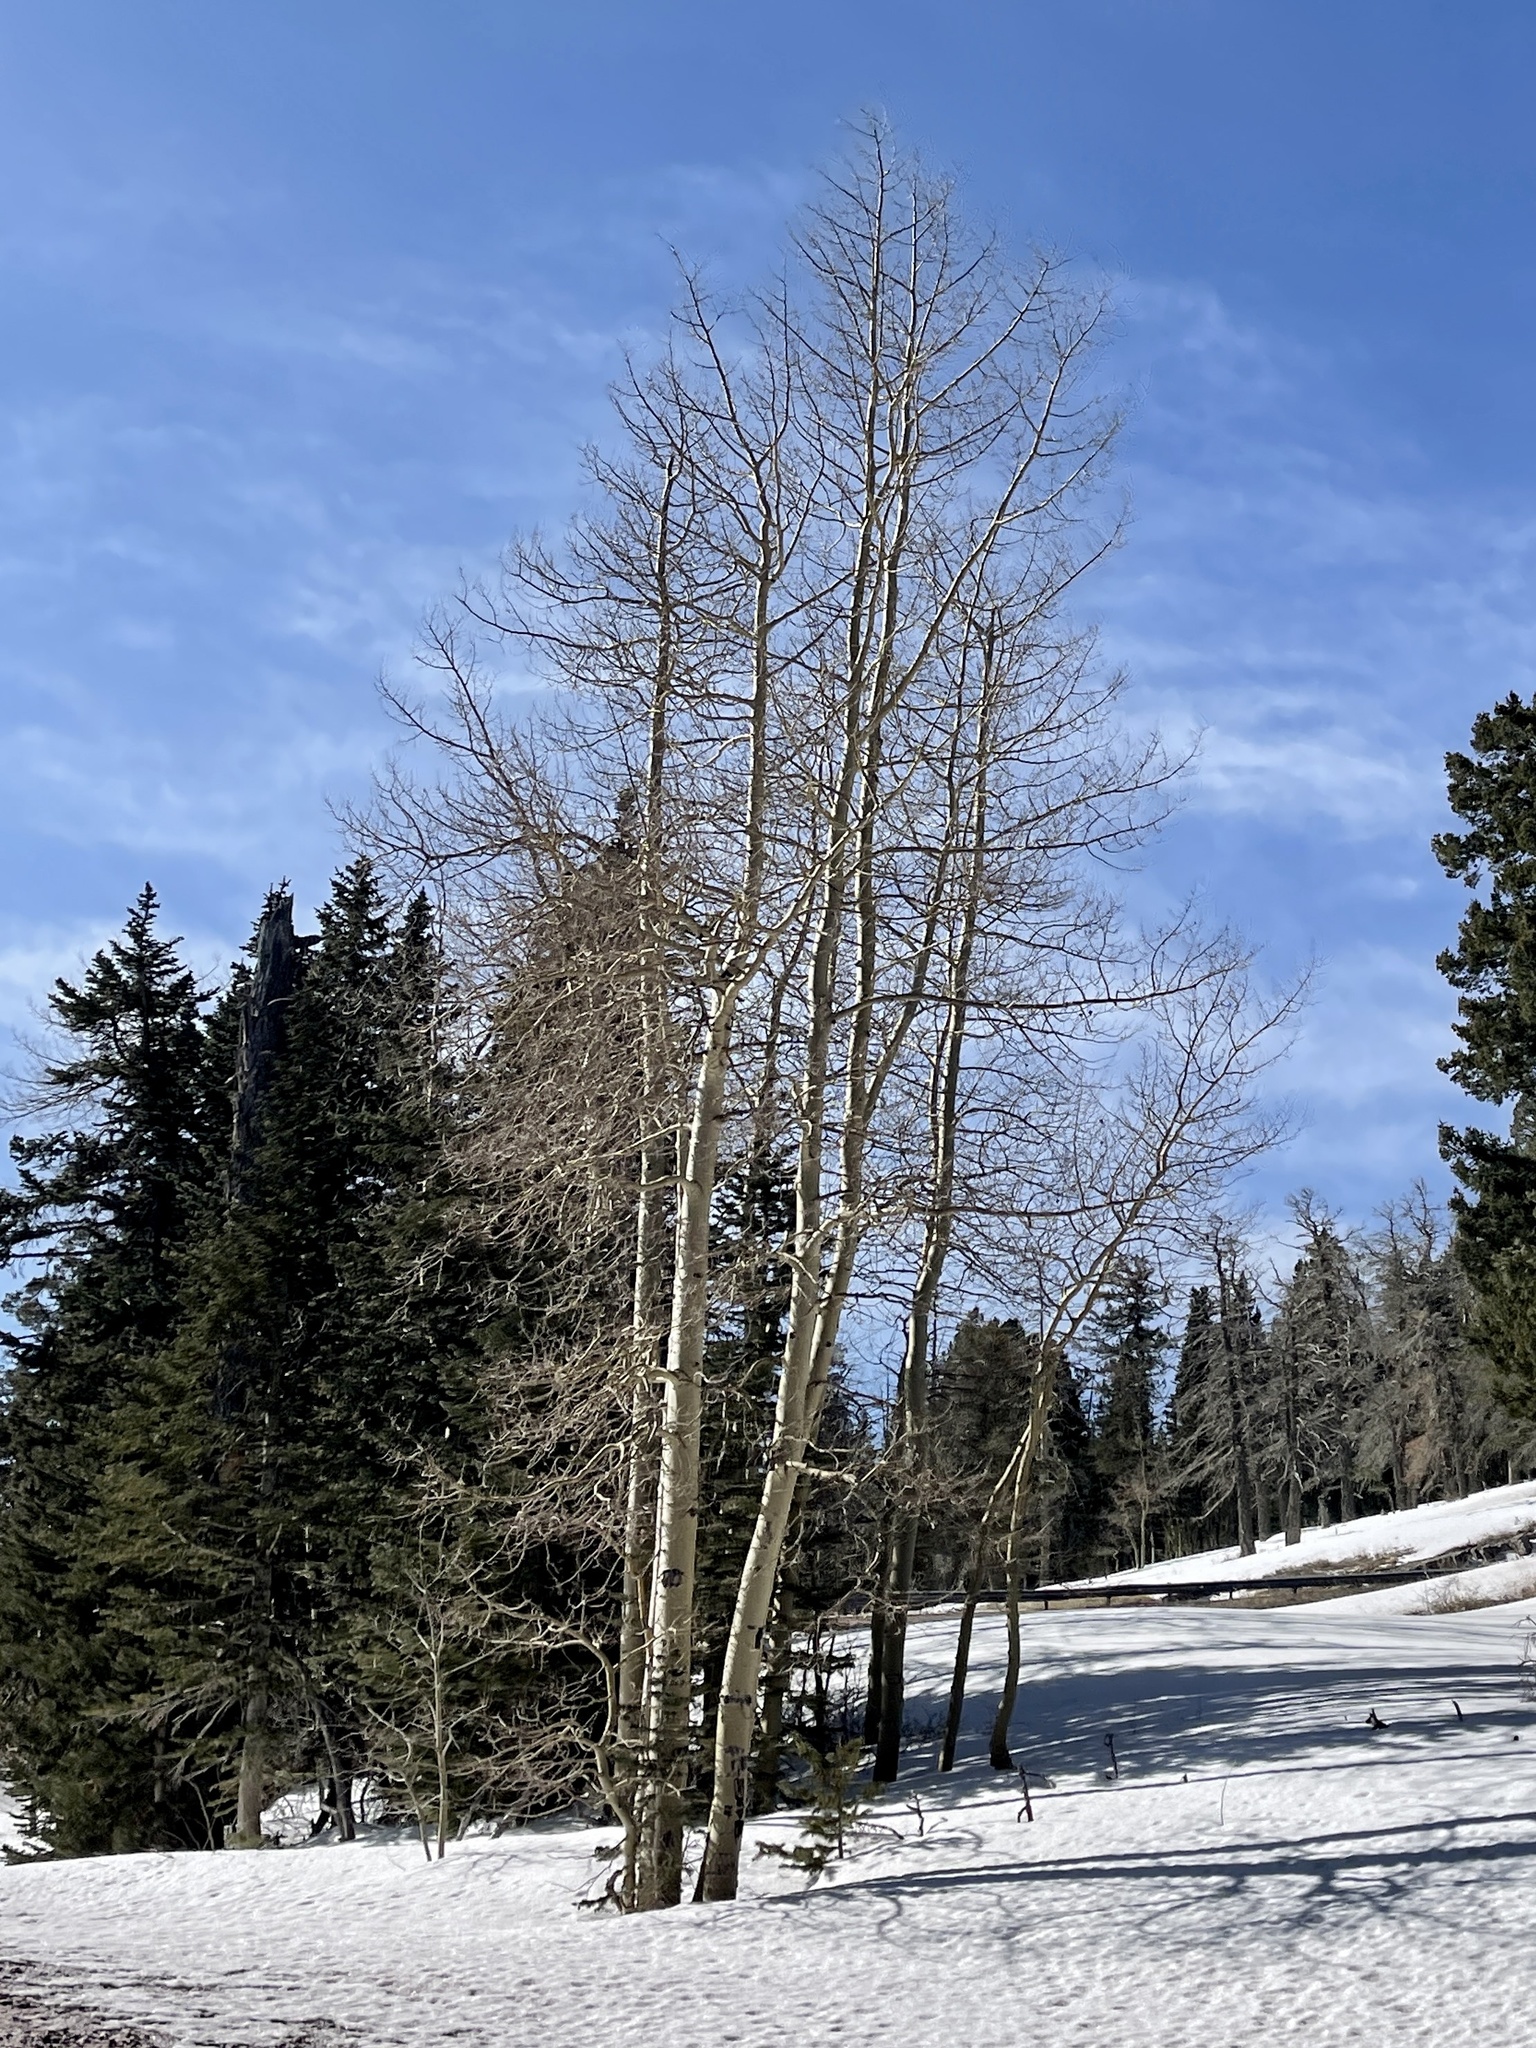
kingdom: Plantae
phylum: Tracheophyta
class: Magnoliopsida
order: Malpighiales
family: Salicaceae
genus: Populus
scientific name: Populus tremuloides
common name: Quaking aspen
